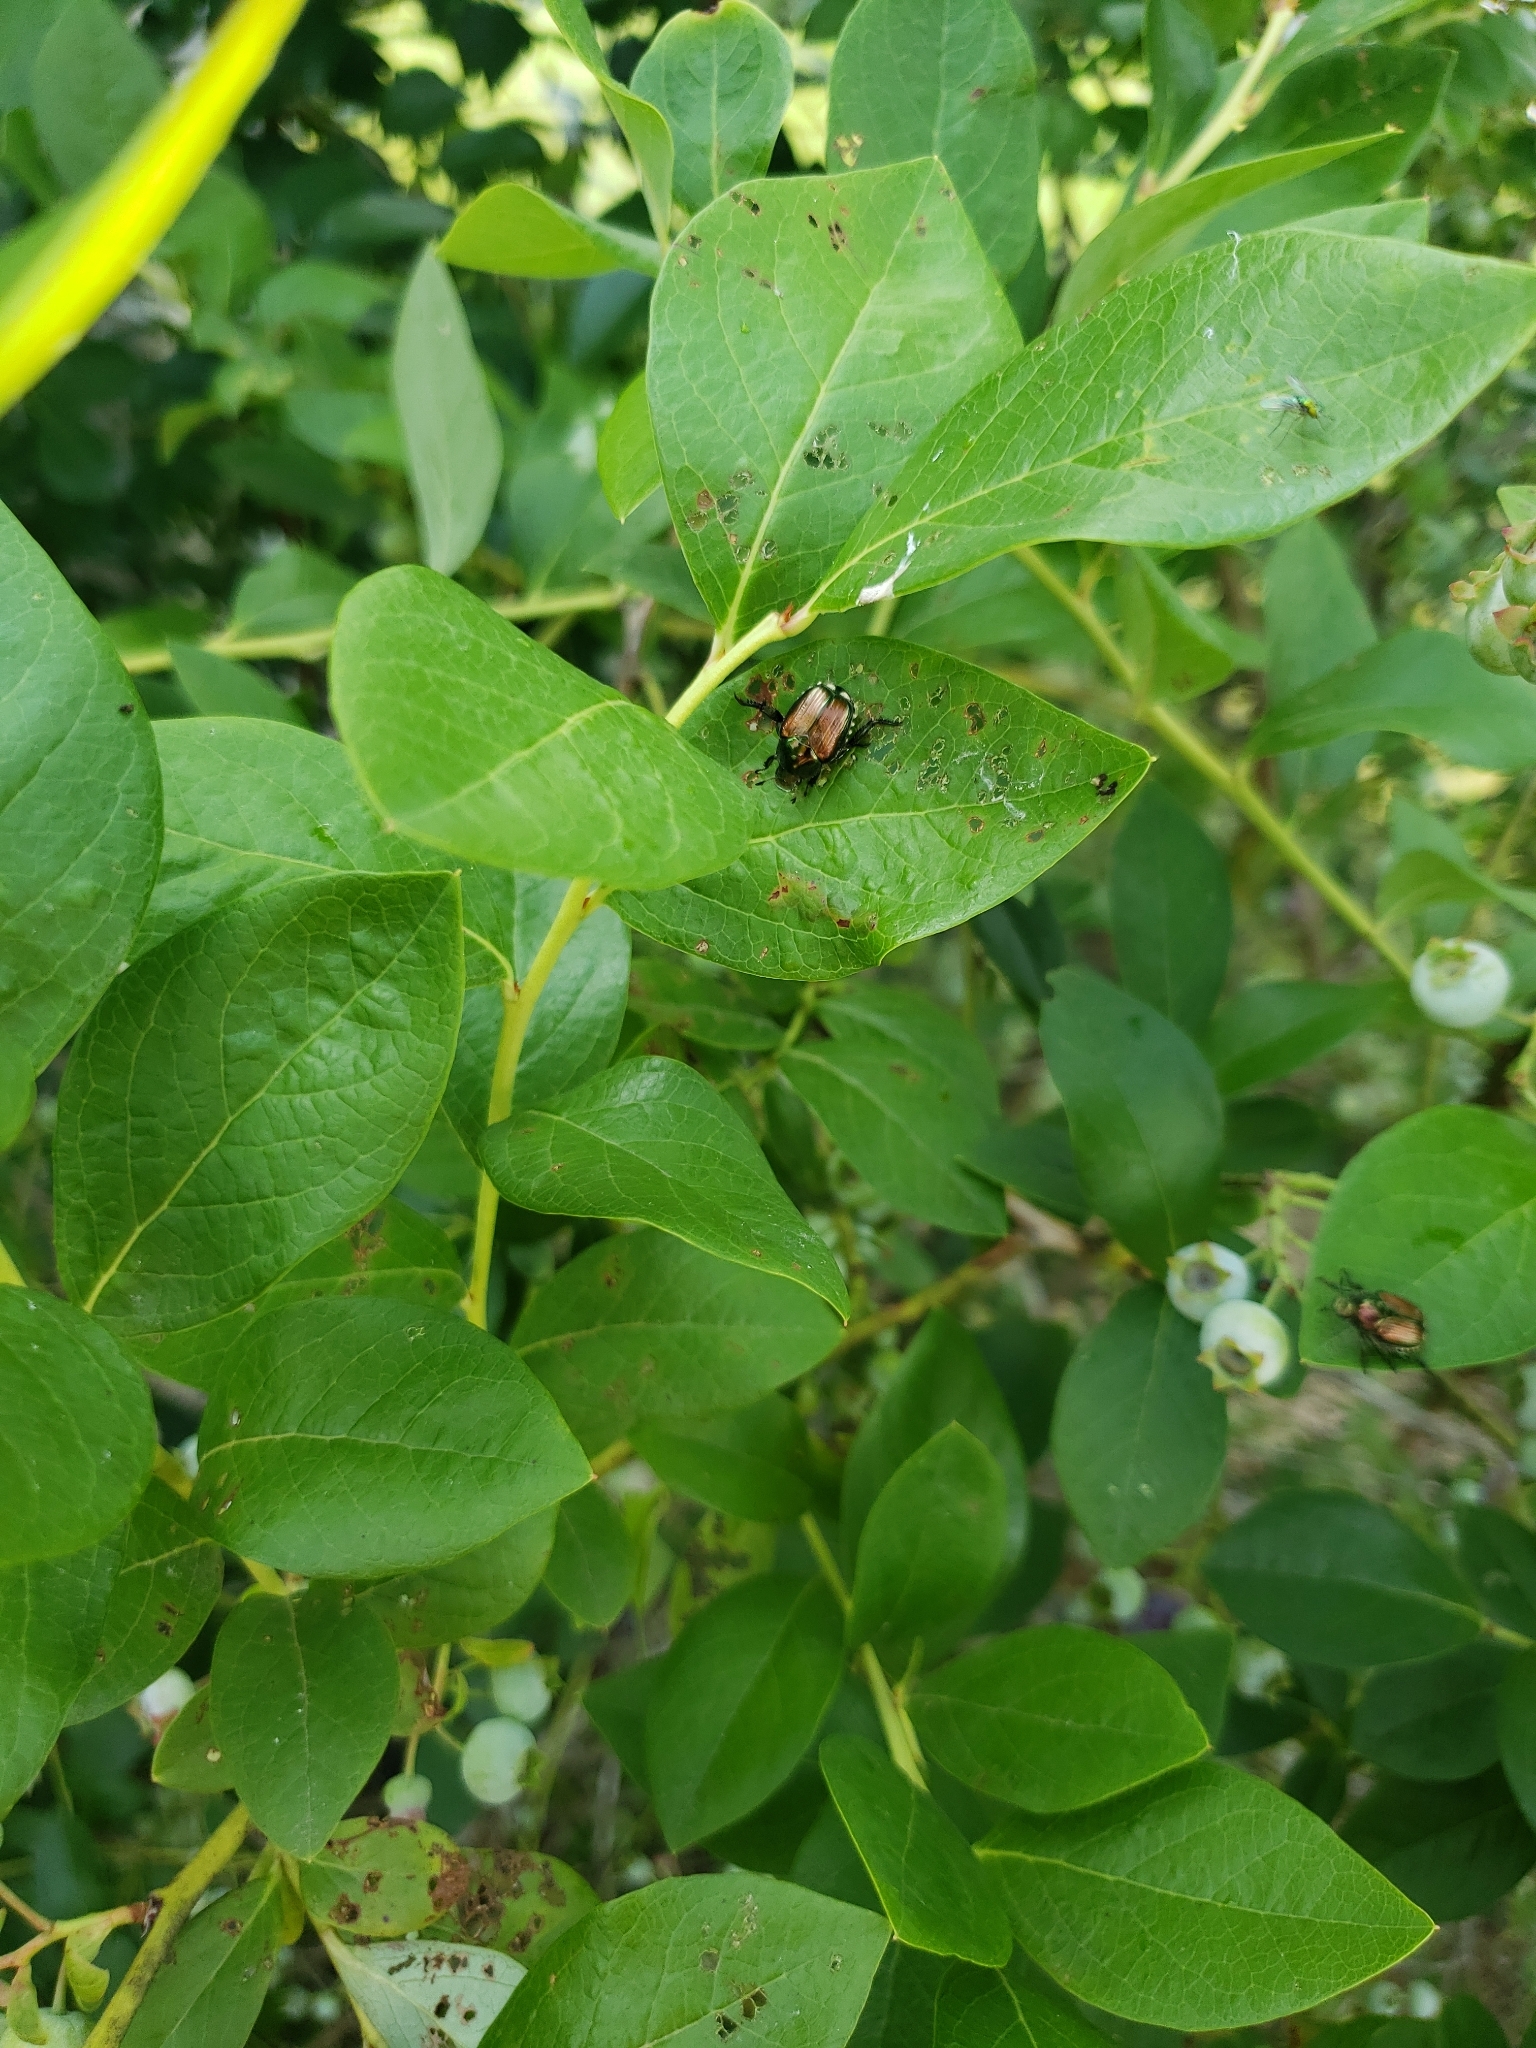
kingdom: Animalia
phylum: Arthropoda
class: Insecta
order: Coleoptera
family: Scarabaeidae
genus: Popillia
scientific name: Popillia japonica
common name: Japanese beetle
